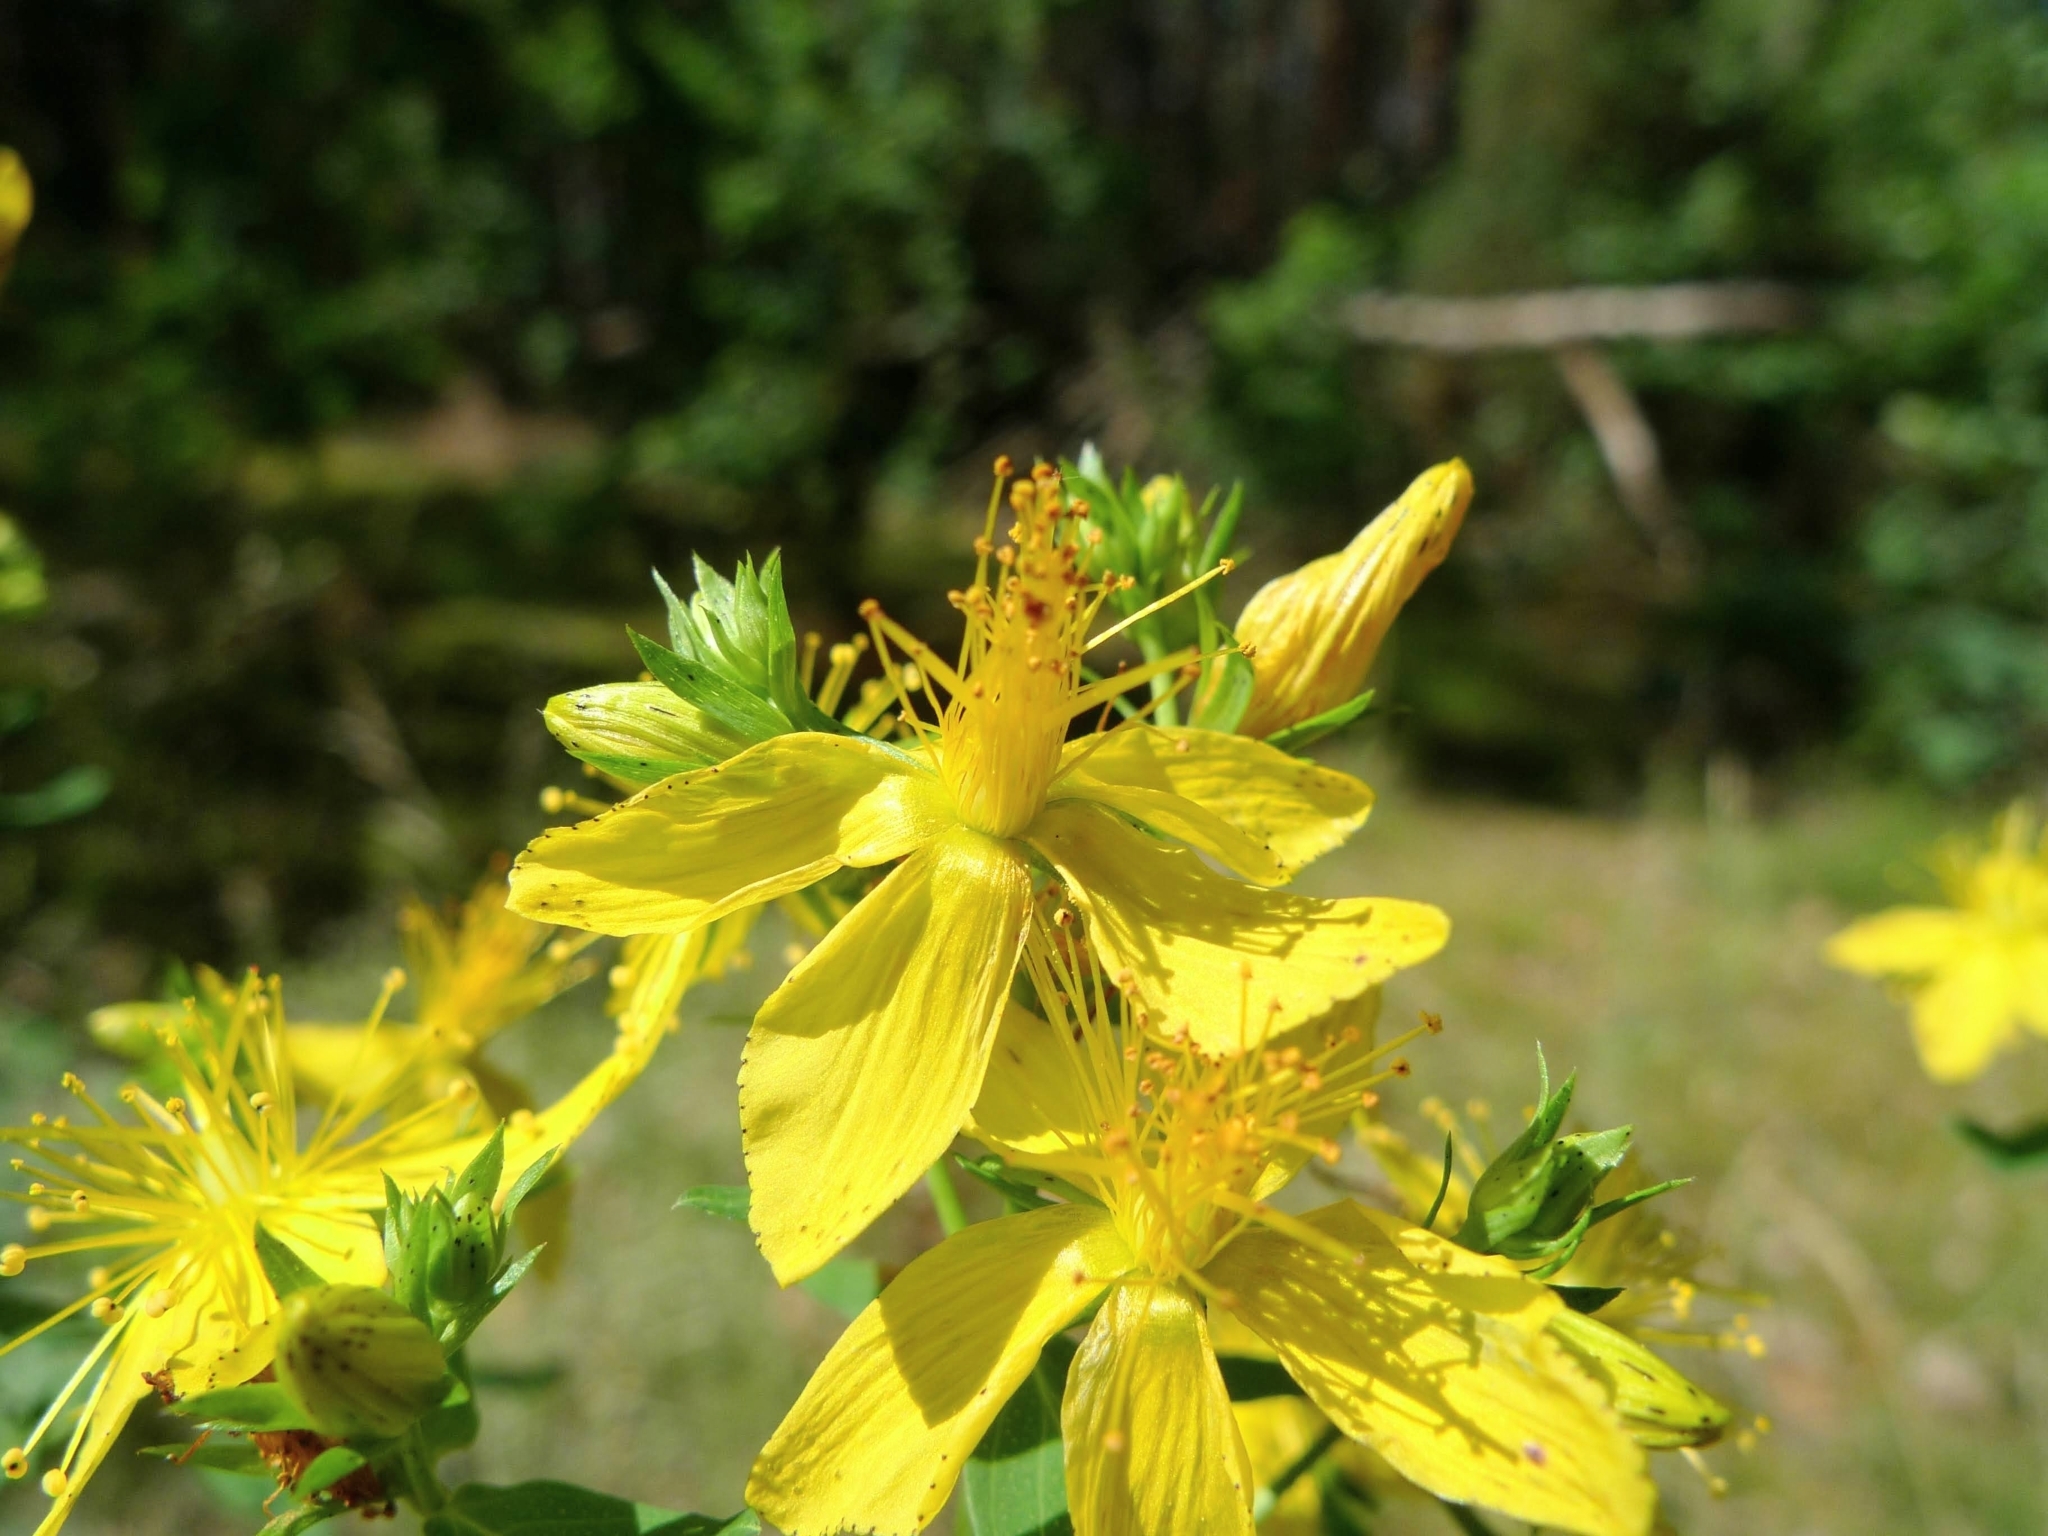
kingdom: Plantae
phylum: Tracheophyta
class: Magnoliopsida
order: Malpighiales
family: Hypericaceae
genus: Hypericum
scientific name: Hypericum perforatum
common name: Common st. johnswort
